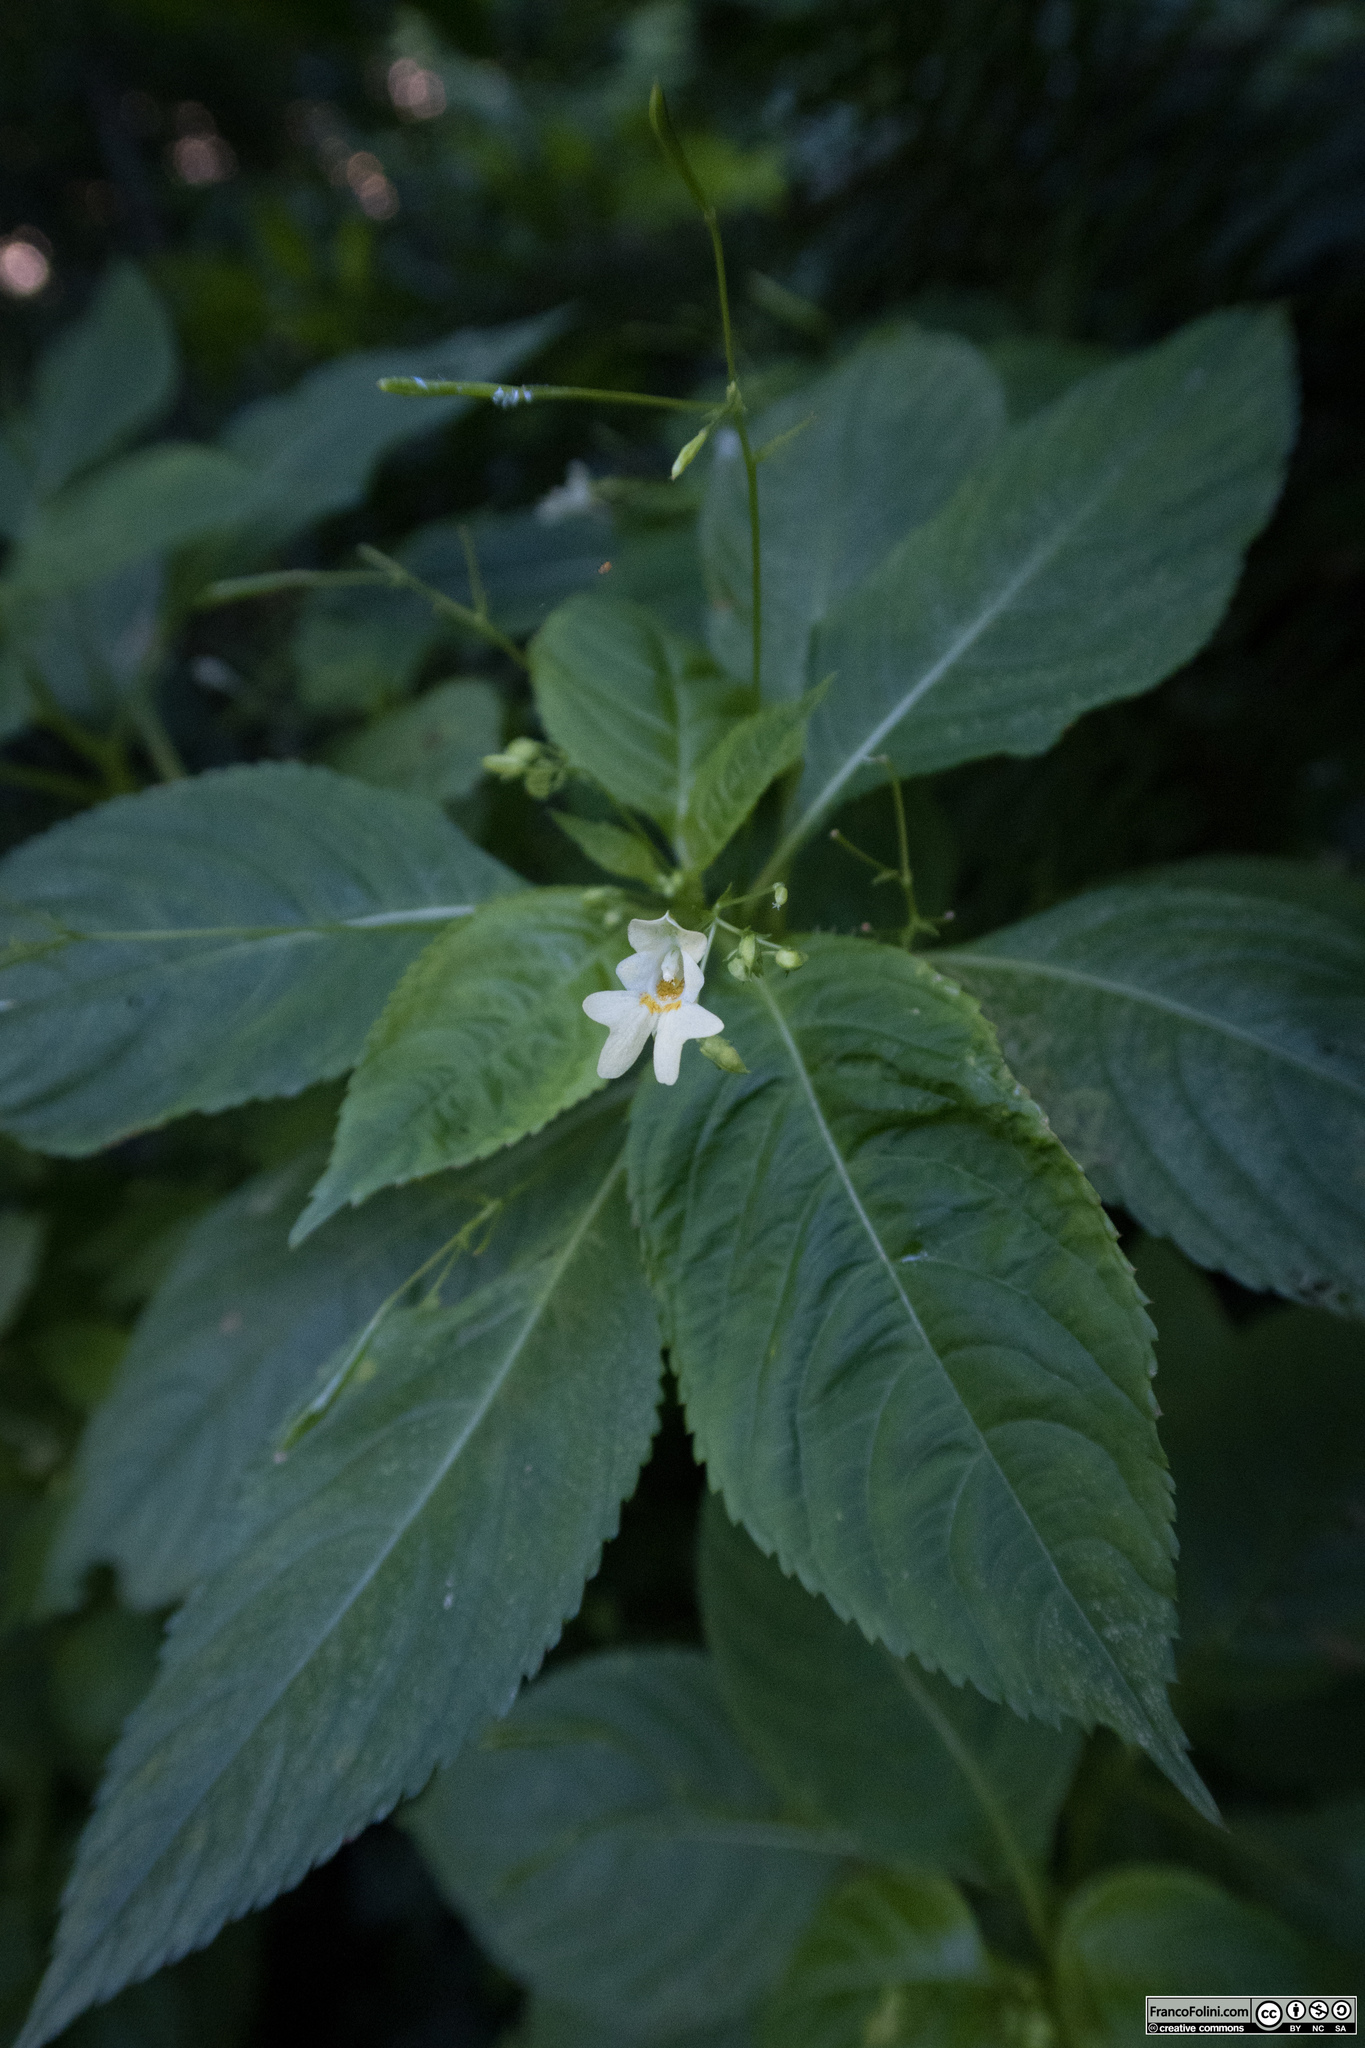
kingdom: Plantae
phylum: Tracheophyta
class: Magnoliopsida
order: Ericales
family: Balsaminaceae
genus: Impatiens
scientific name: Impatiens parviflora
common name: Small balsam
